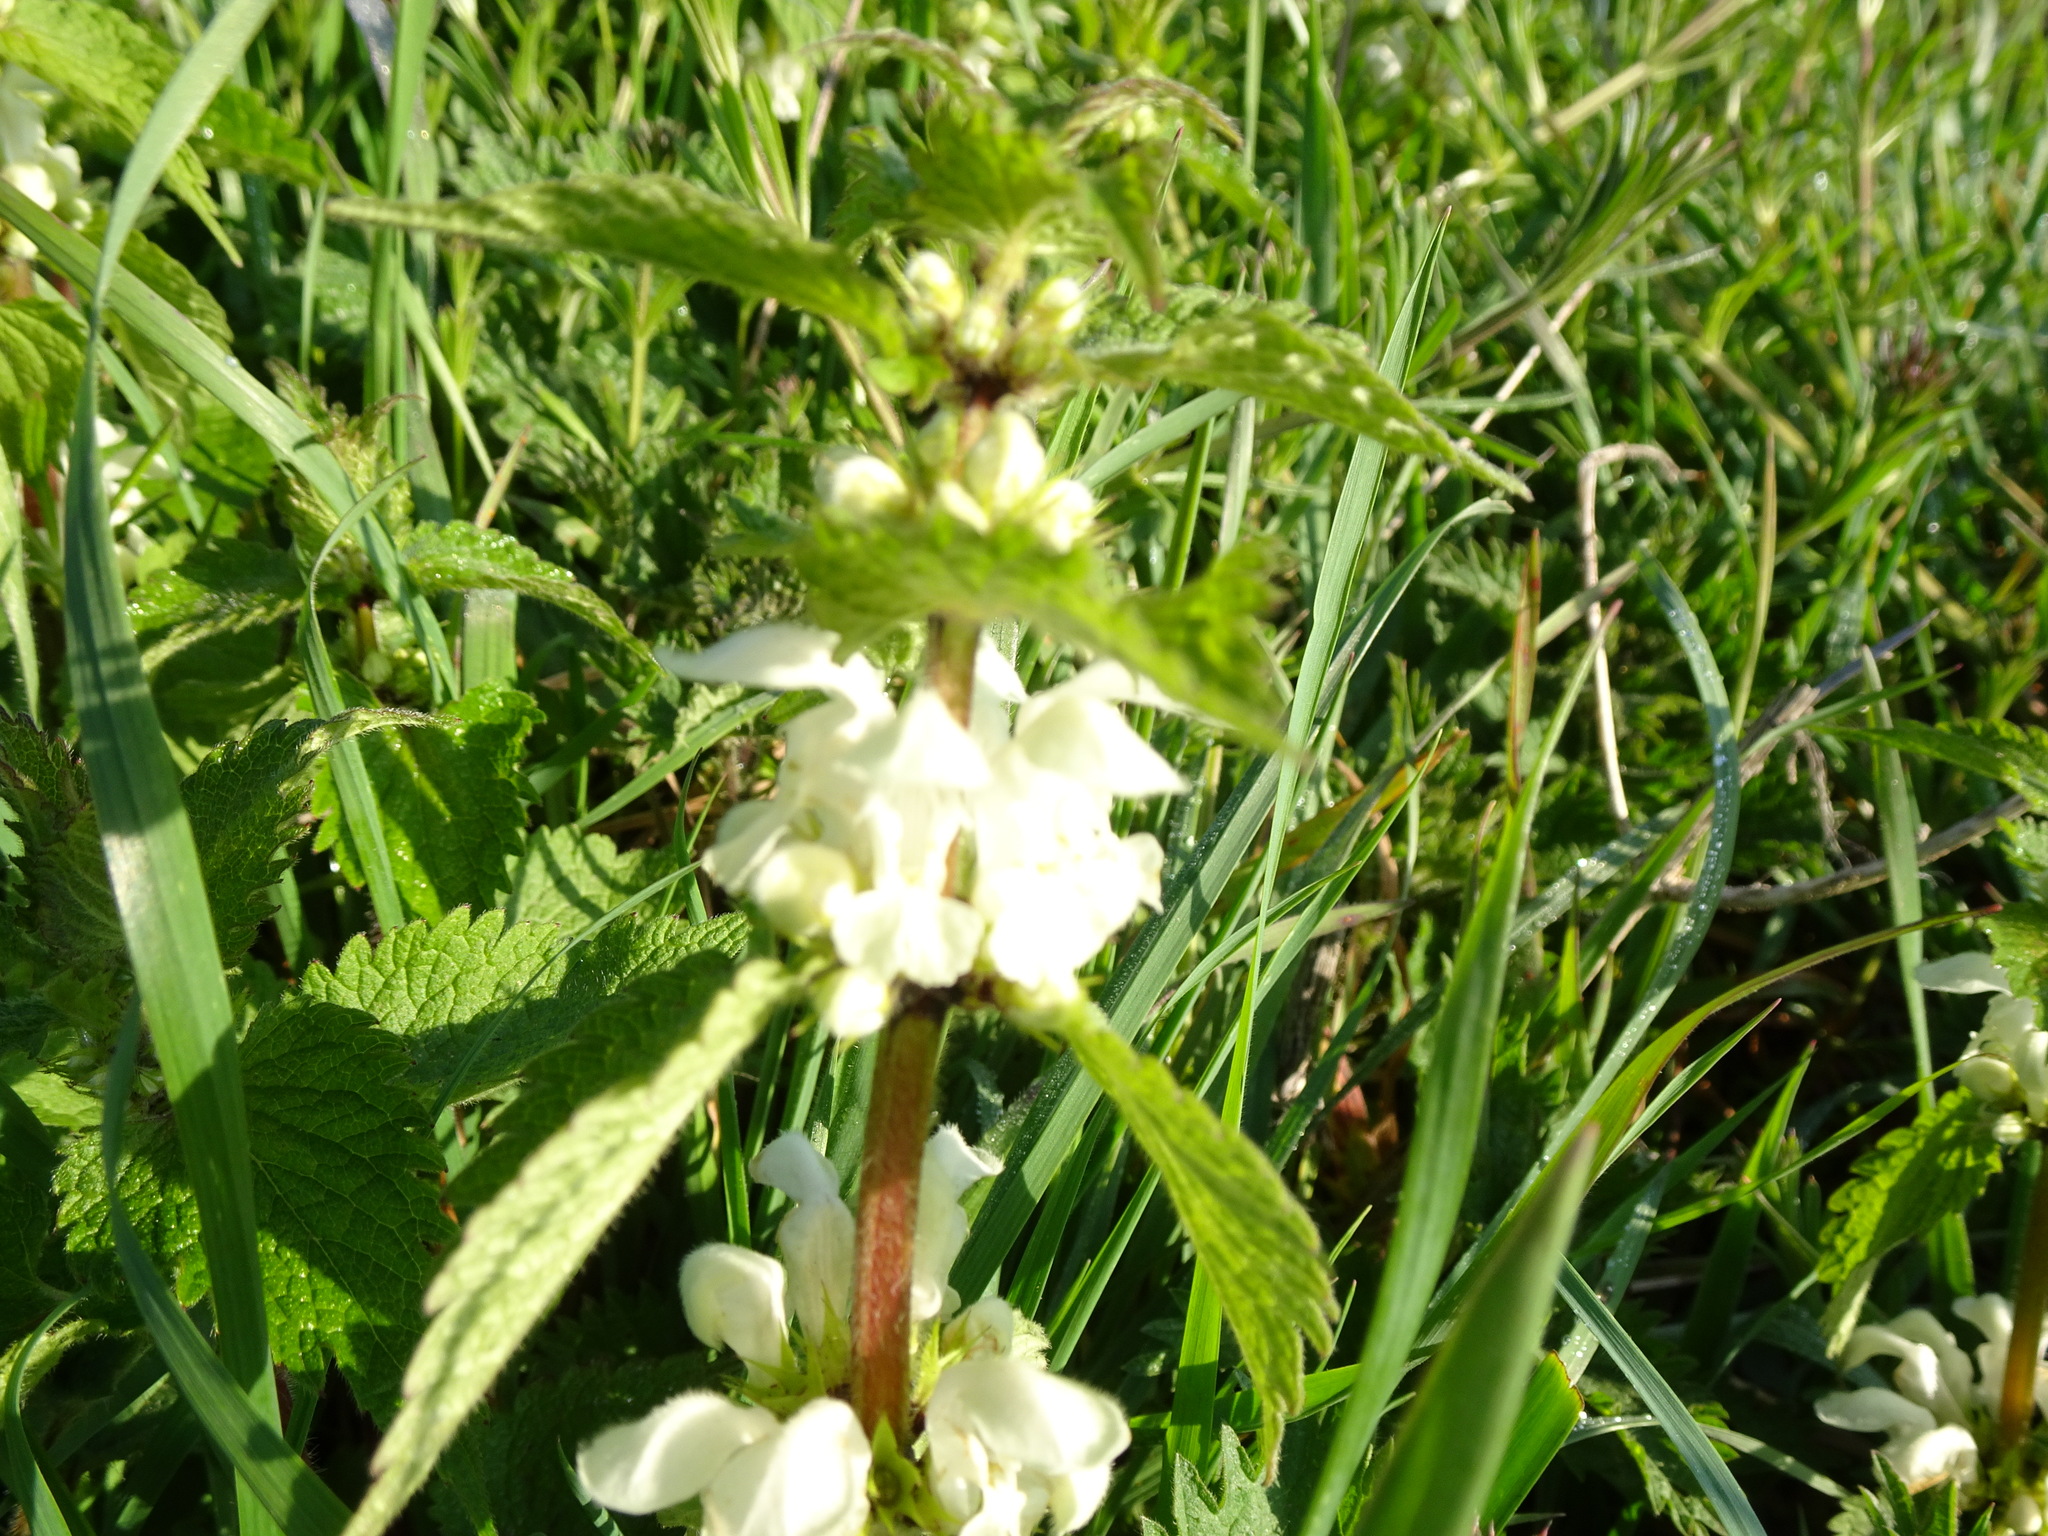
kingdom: Plantae
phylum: Tracheophyta
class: Magnoliopsida
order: Lamiales
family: Lamiaceae
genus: Lamium
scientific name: Lamium album
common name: White dead-nettle
